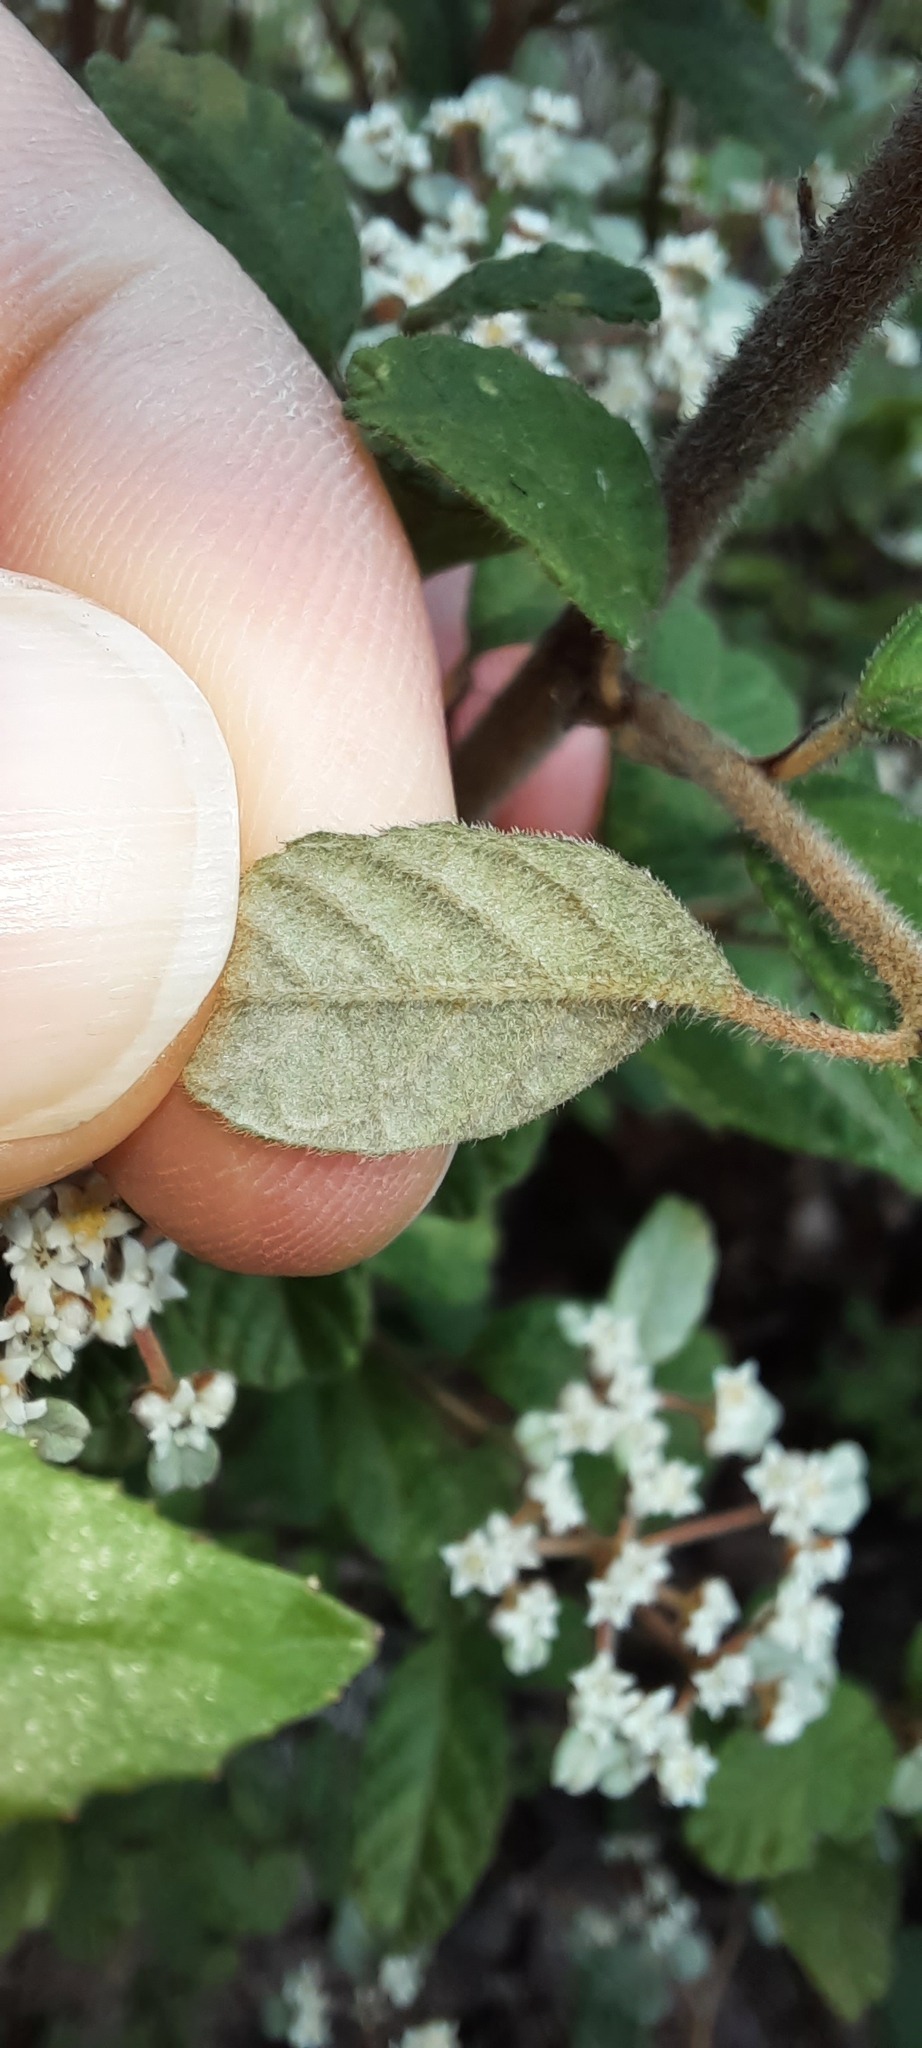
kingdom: Plantae
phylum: Tracheophyta
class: Magnoliopsida
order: Rosales
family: Rhamnaceae
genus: Spyridium
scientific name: Spyridium parvifolium
